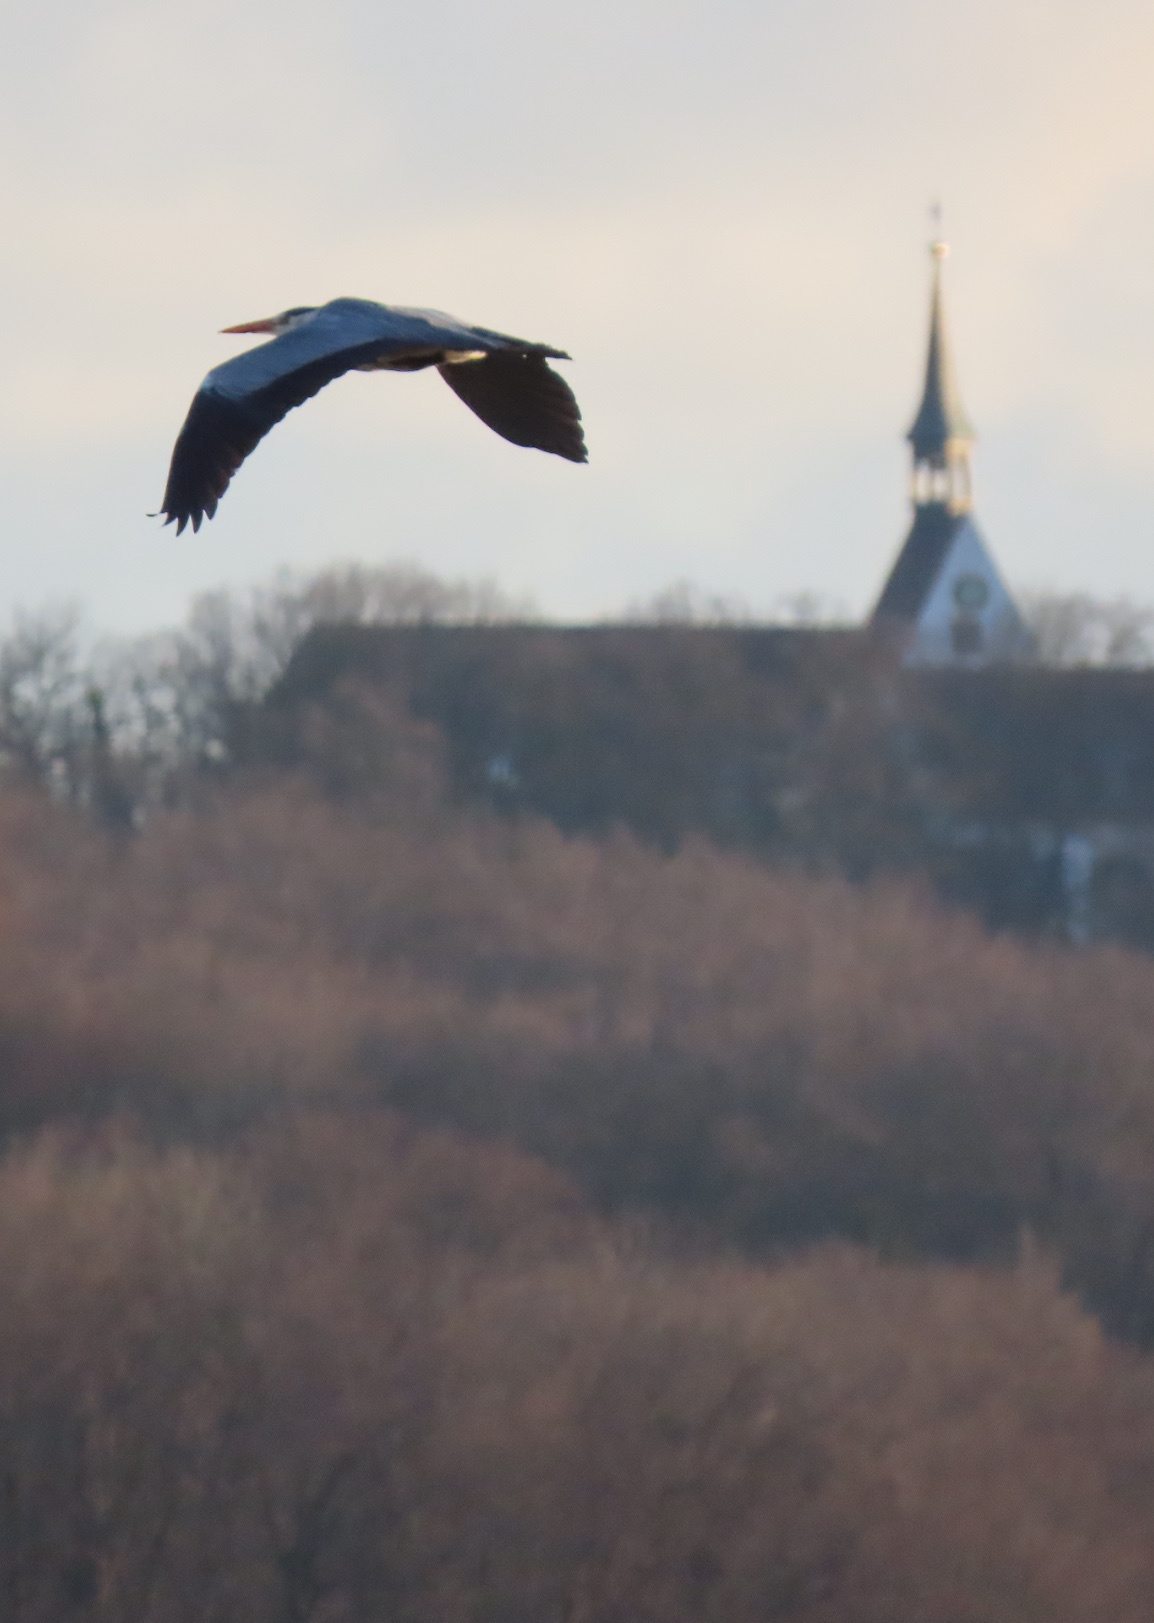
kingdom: Animalia
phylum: Chordata
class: Aves
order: Pelecaniformes
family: Ardeidae
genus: Ardea
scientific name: Ardea cinerea
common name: Grey heron
